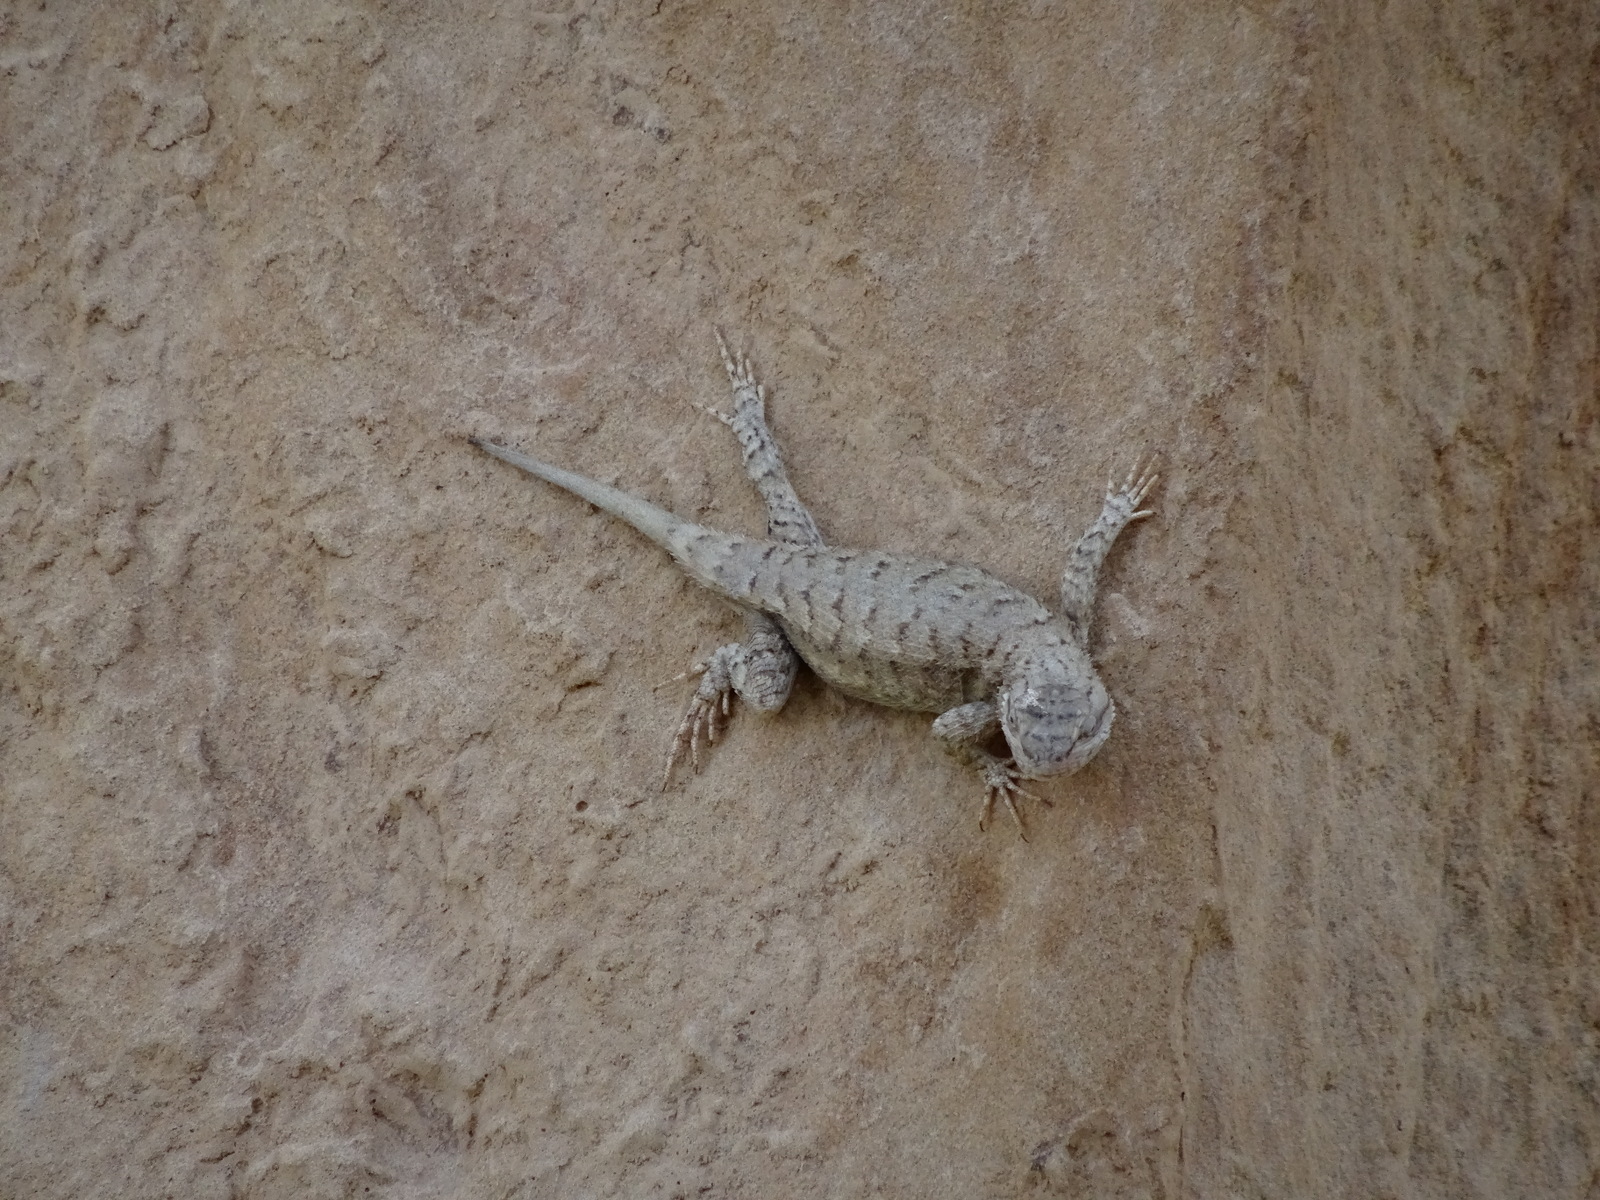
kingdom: Animalia
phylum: Chordata
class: Squamata
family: Phrynosomatidae
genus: Sceloporus
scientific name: Sceloporus tristichus
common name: Plateau fence lizard
